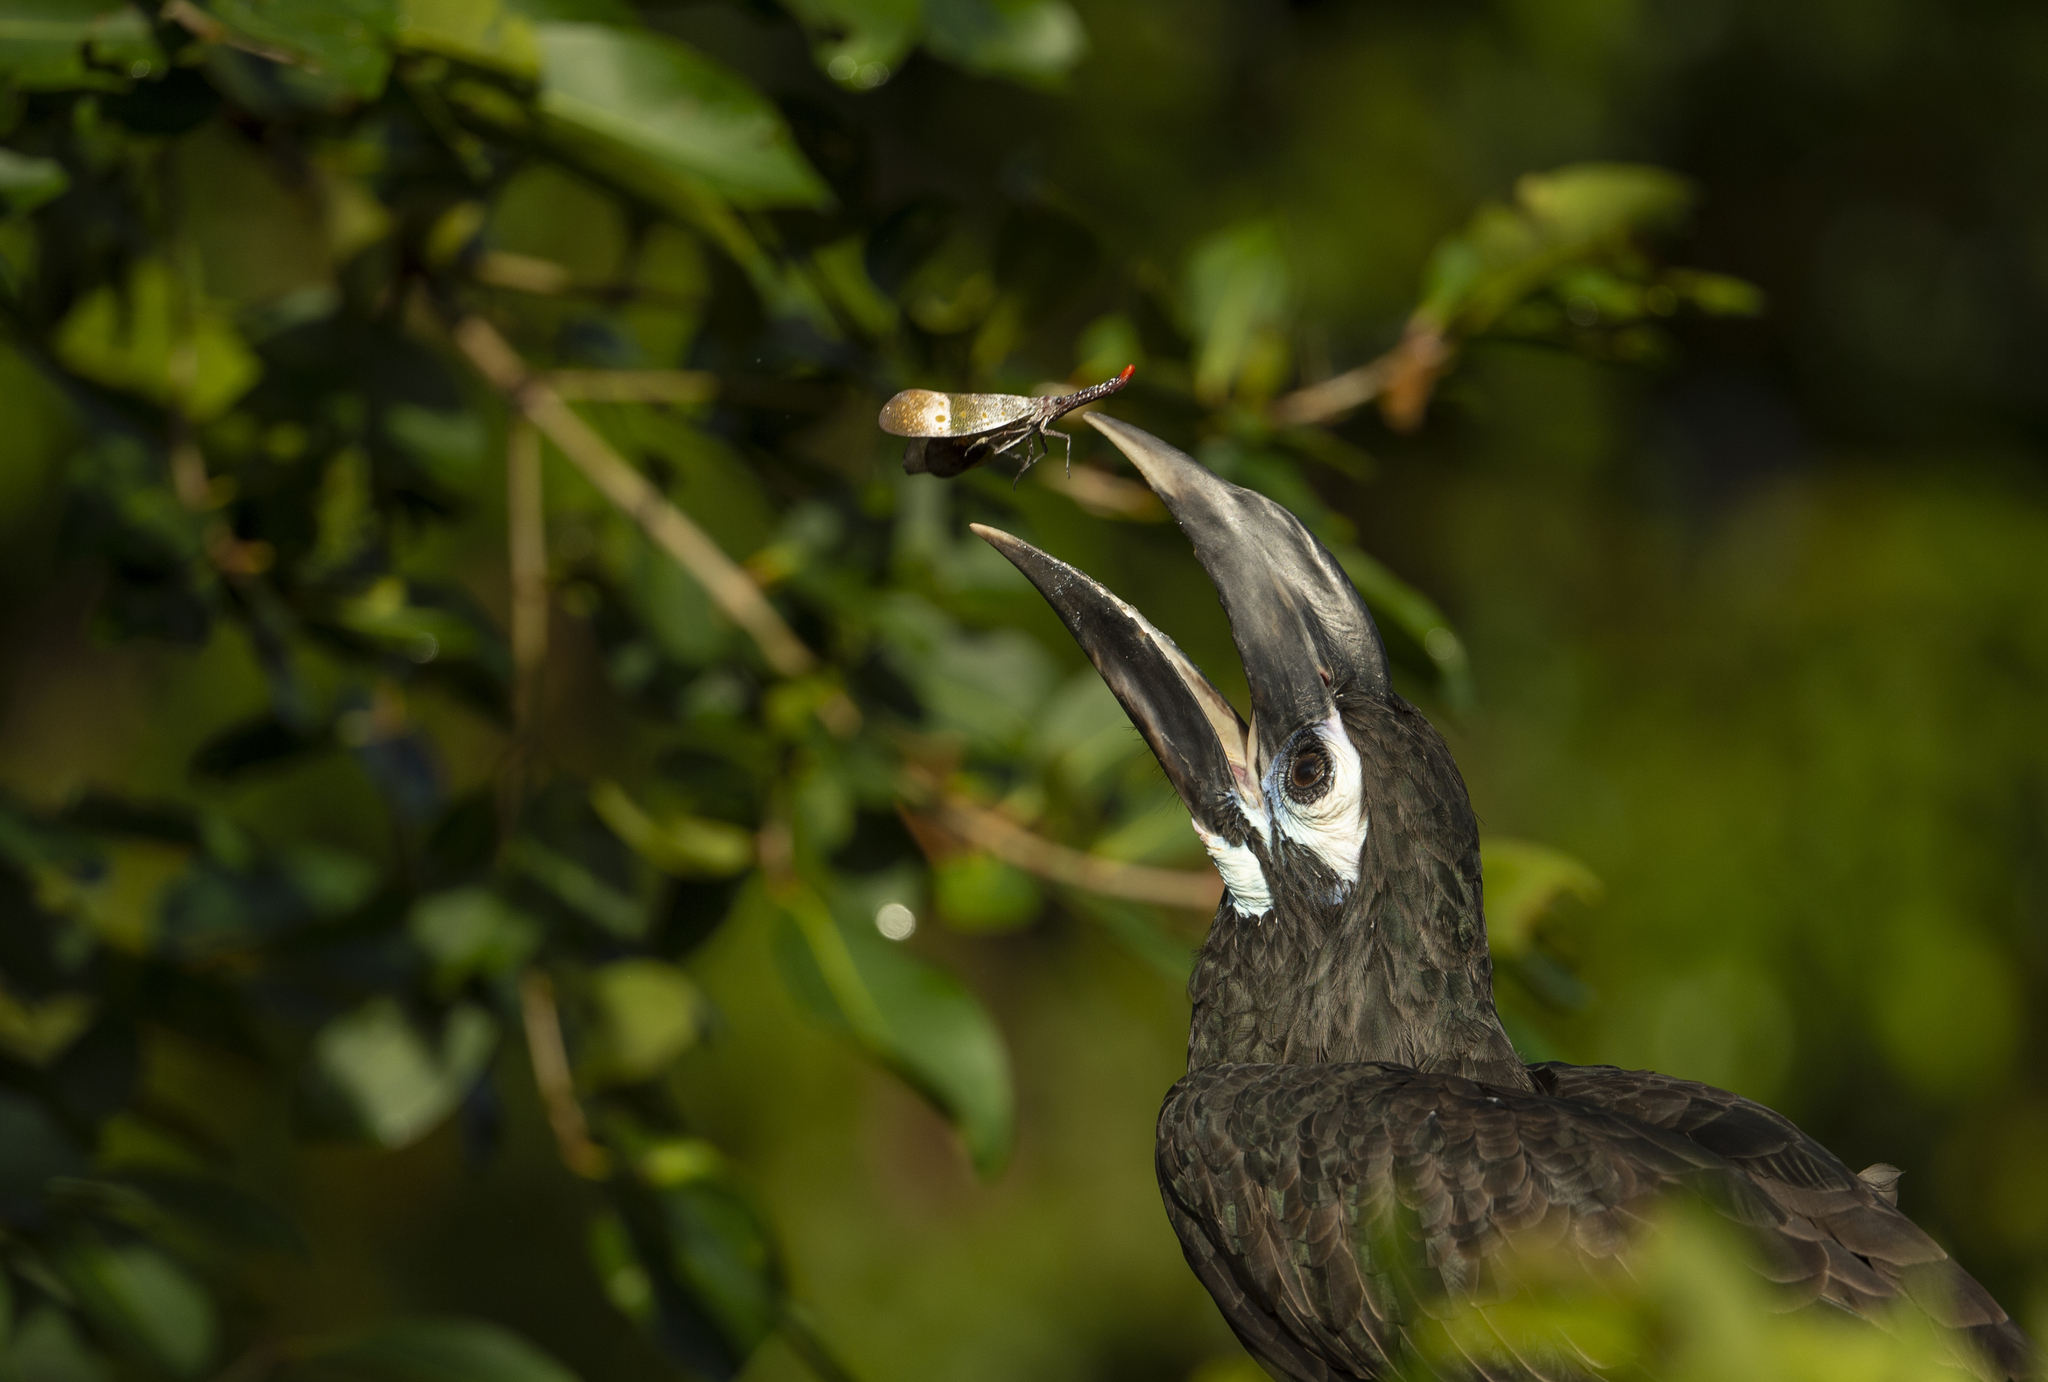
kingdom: Animalia
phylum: Chordata
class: Aves
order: Bucerotiformes
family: Bucerotidae
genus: Anorrhinus
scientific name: Anorrhinus galeritus
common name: Bushy-crested hornbill
